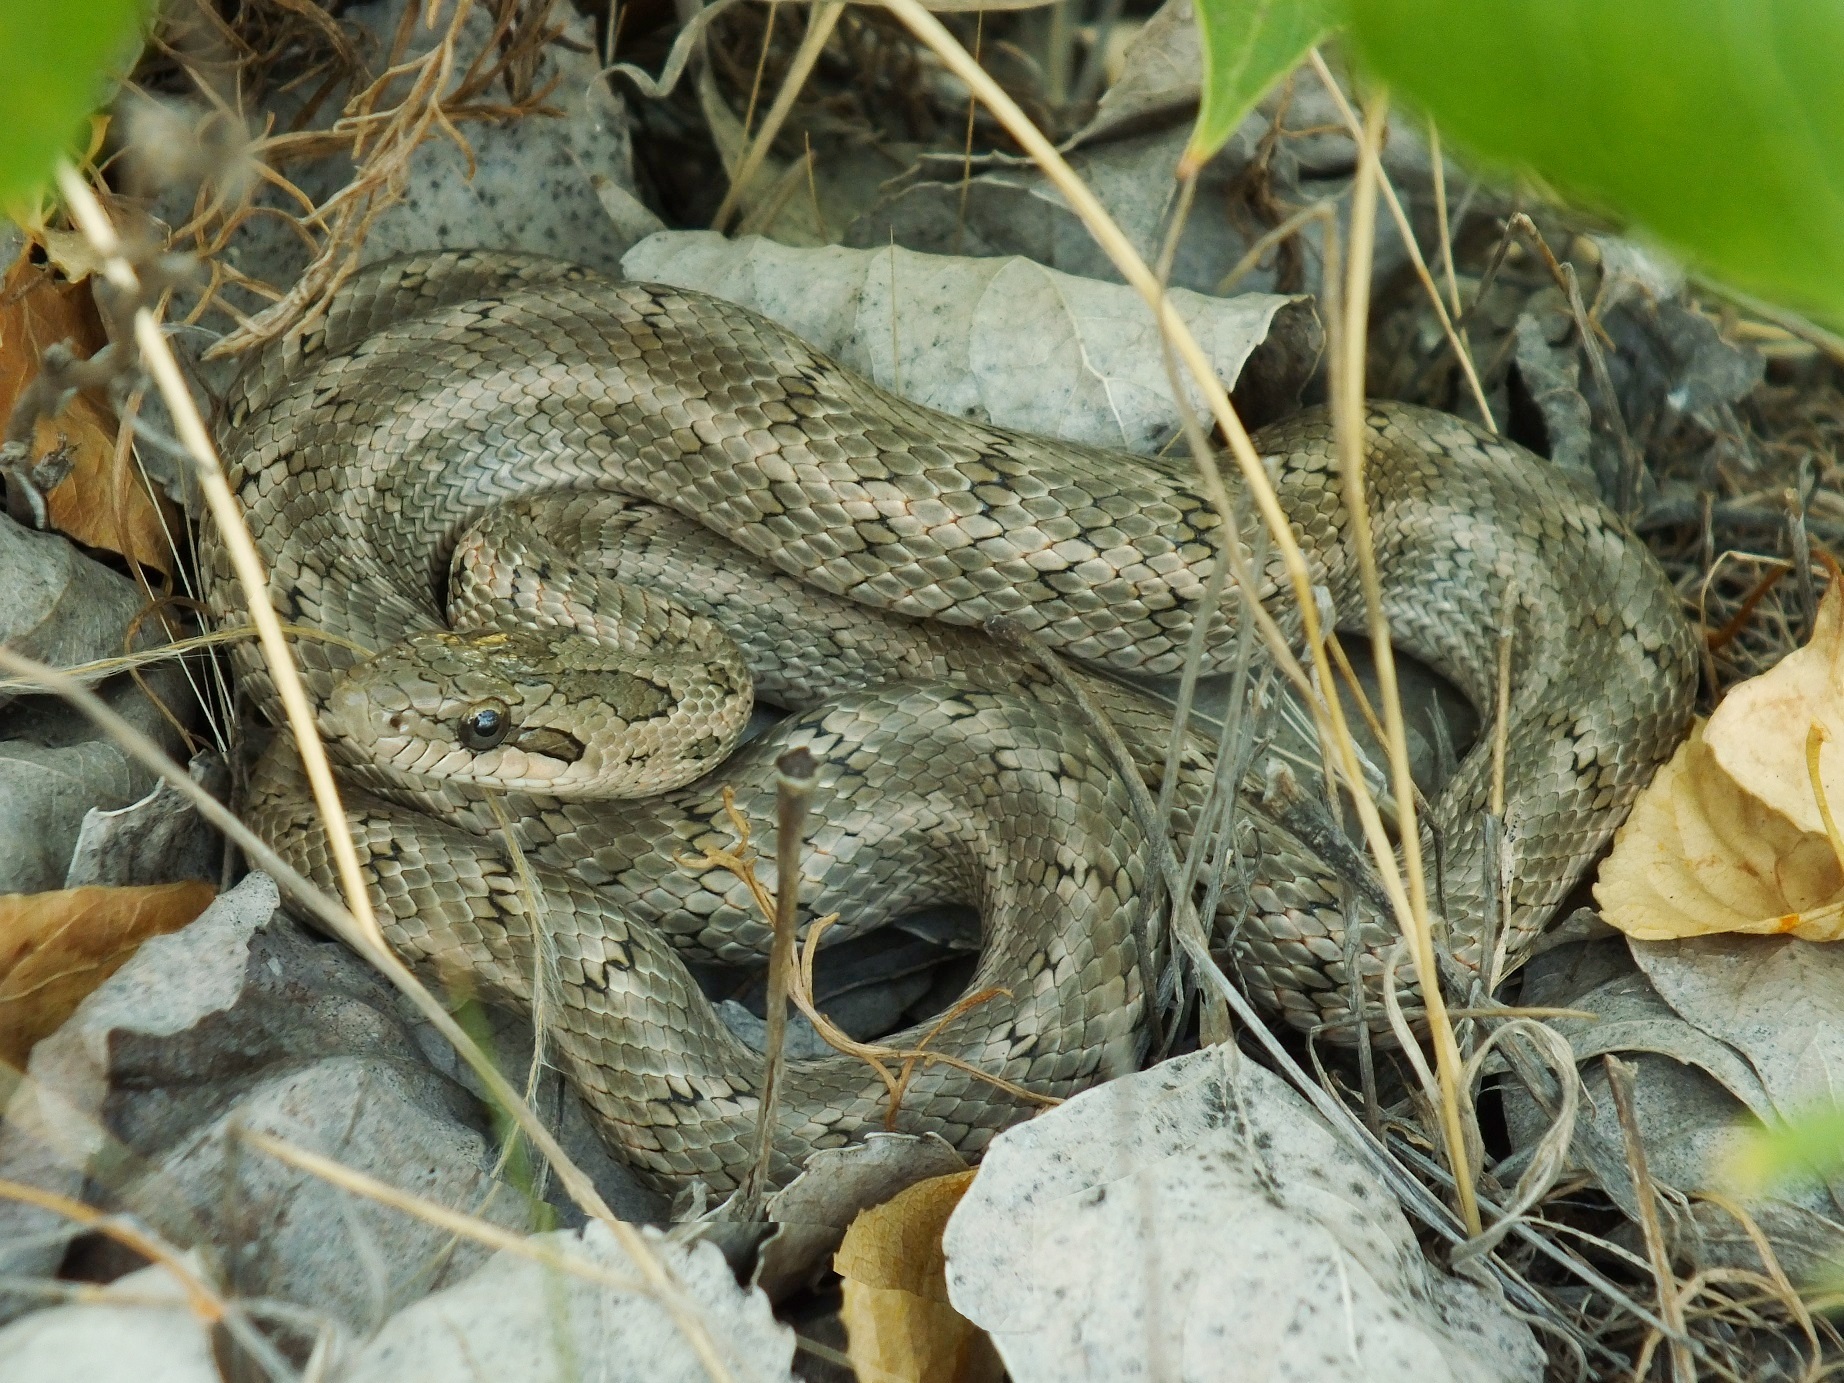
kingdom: Animalia
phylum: Chordata
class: Squamata
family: Colubridae
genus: Elaphe
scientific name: Elaphe dione
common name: Dione ratsnake
